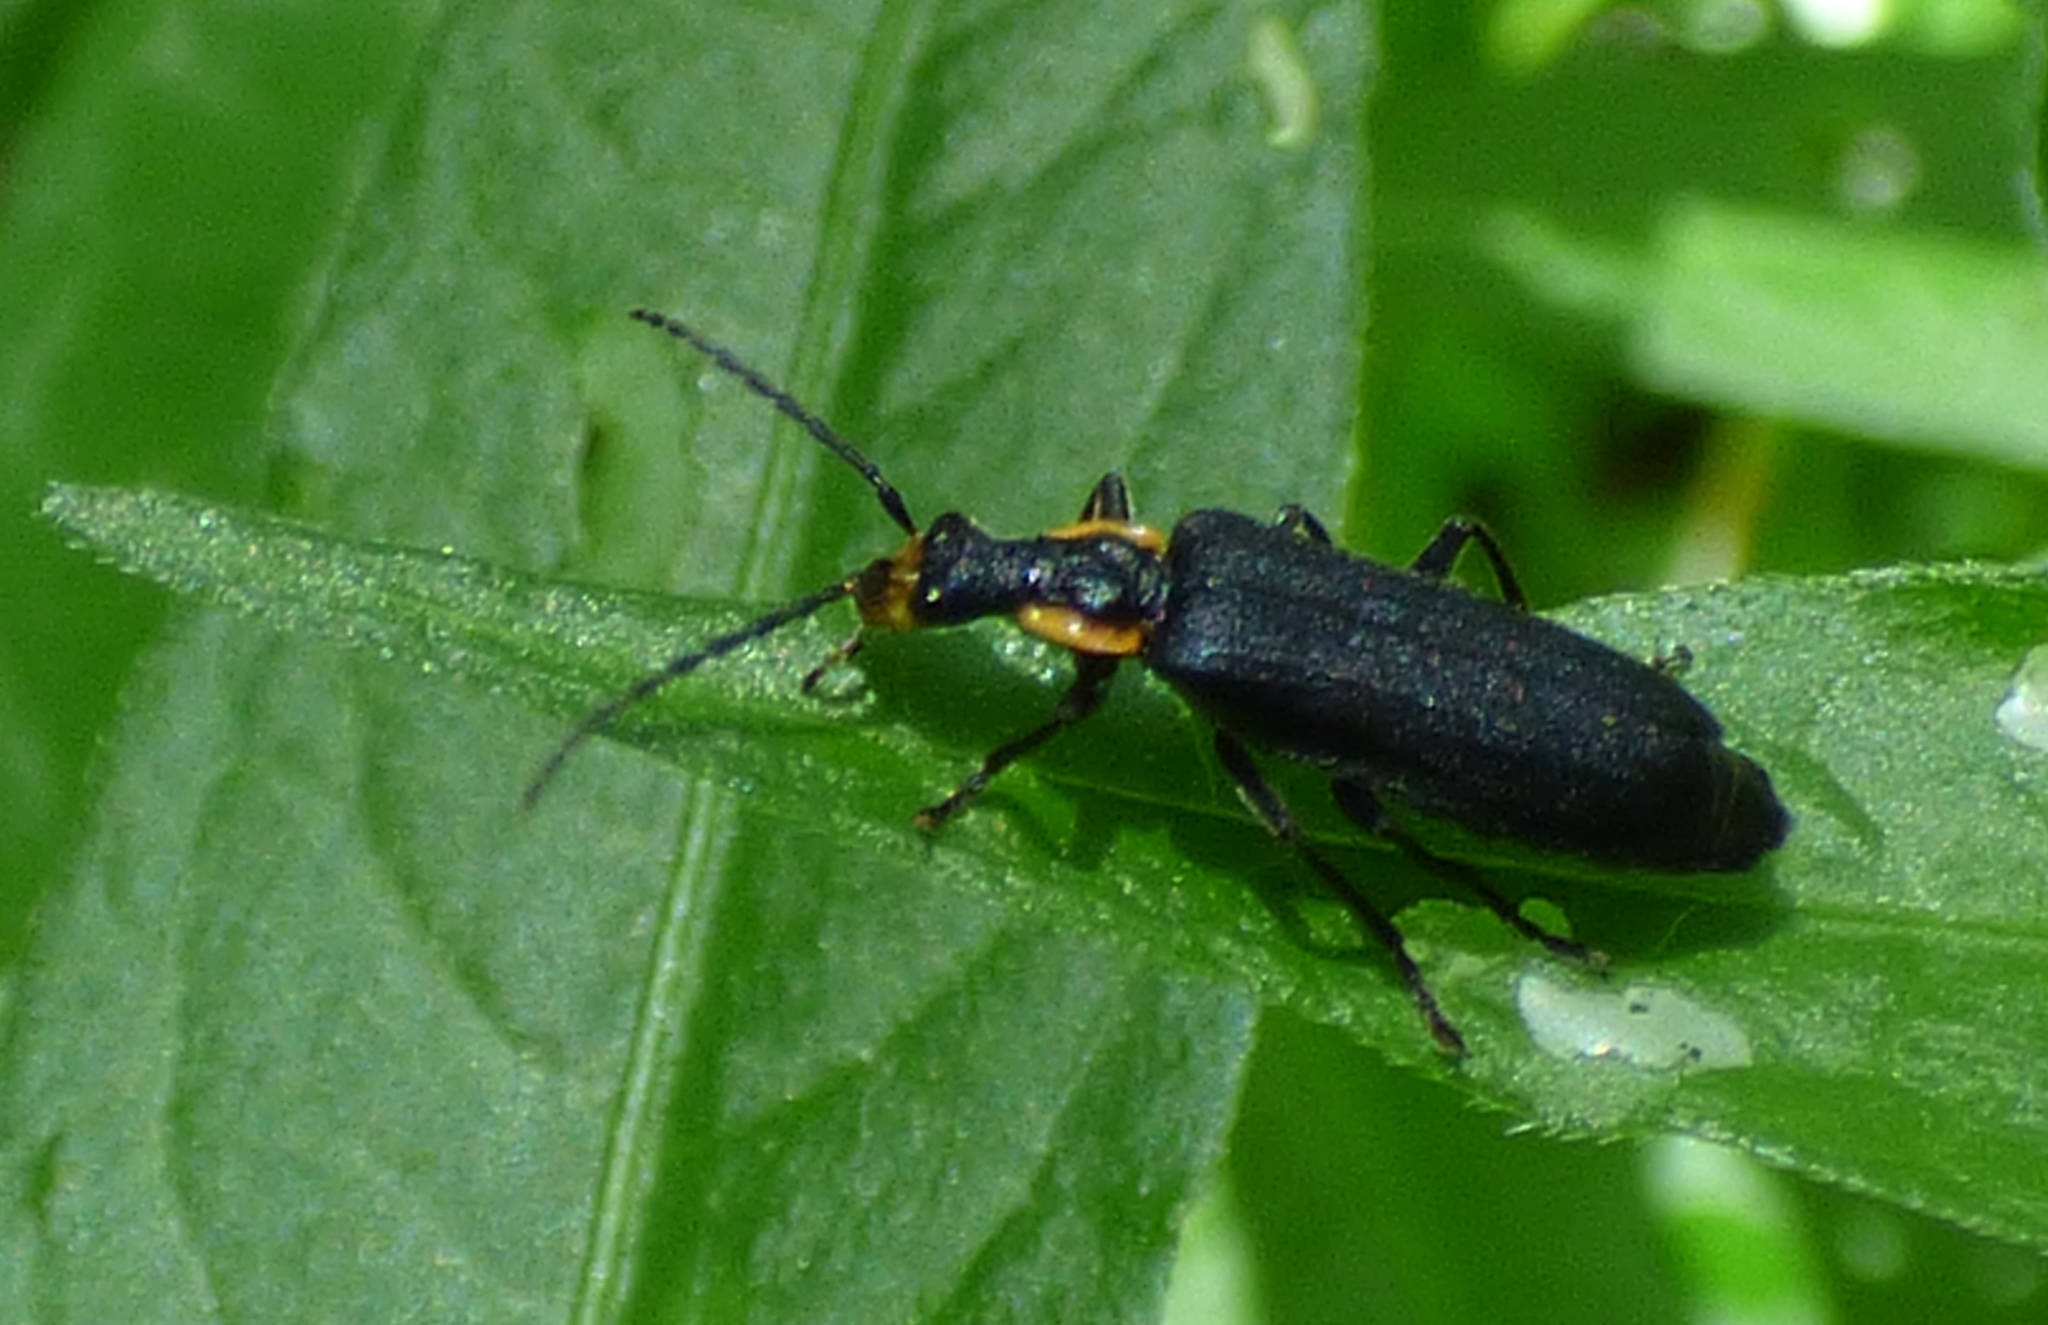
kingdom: Animalia
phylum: Arthropoda
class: Insecta
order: Coleoptera
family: Cantharidae
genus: Podabrus
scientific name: Podabrus rugosulus
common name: Wrinkled soldier beetle
